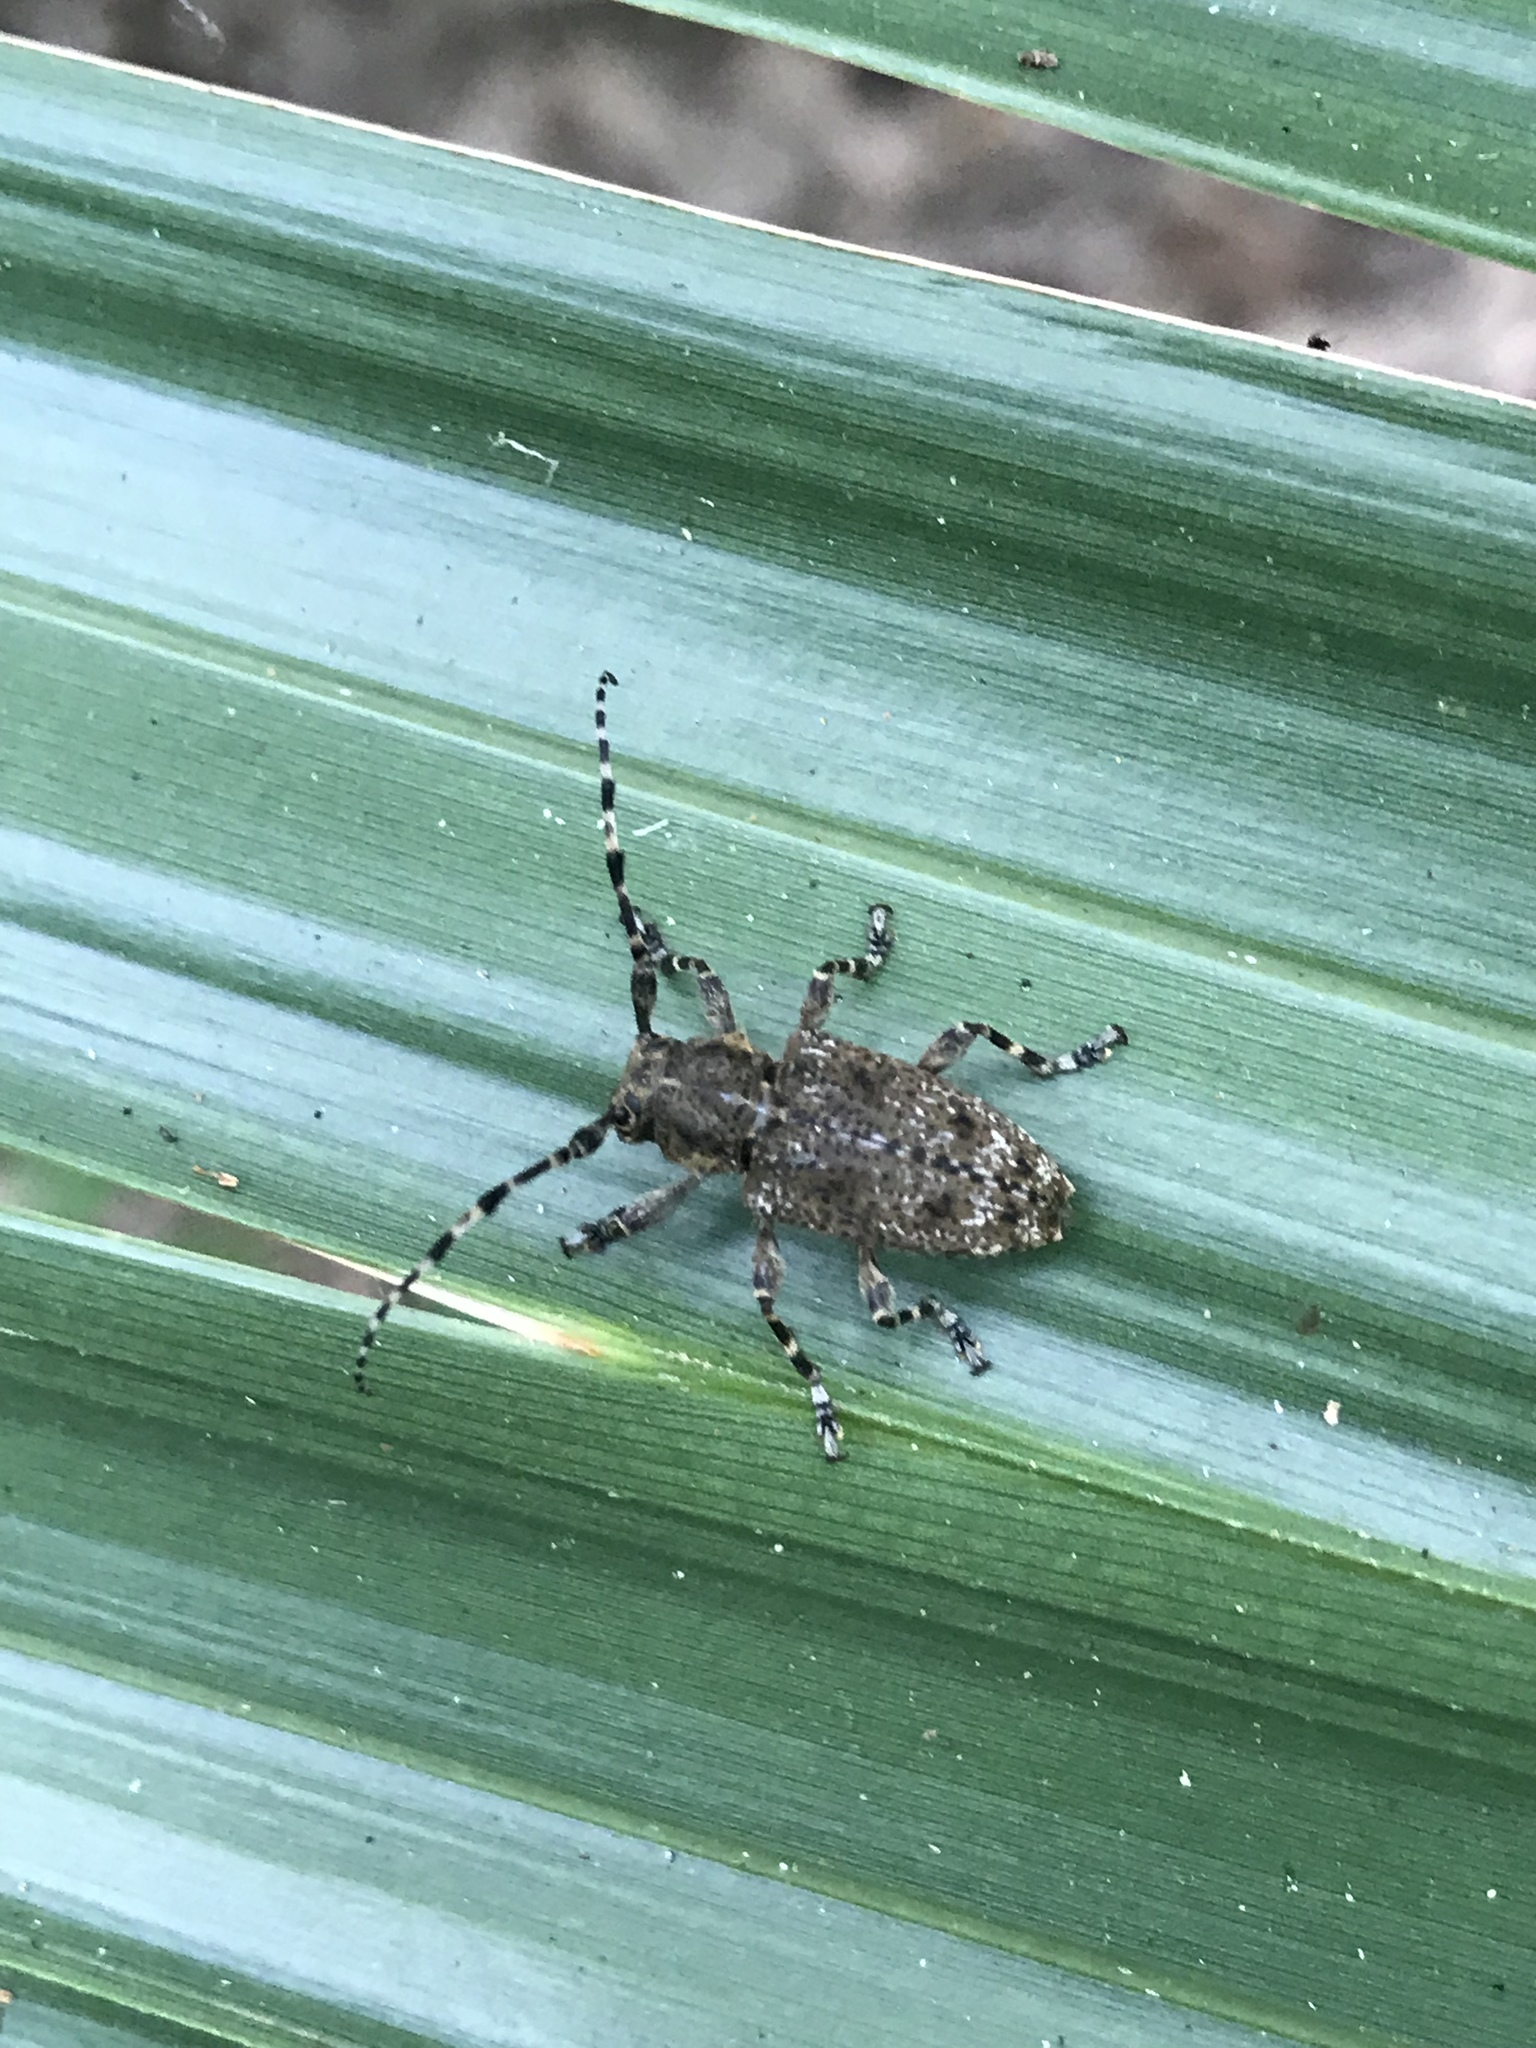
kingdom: Animalia
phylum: Arthropoda
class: Insecta
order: Coleoptera
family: Cerambycidae
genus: Aegomorphus
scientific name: Aegomorphus modestus
